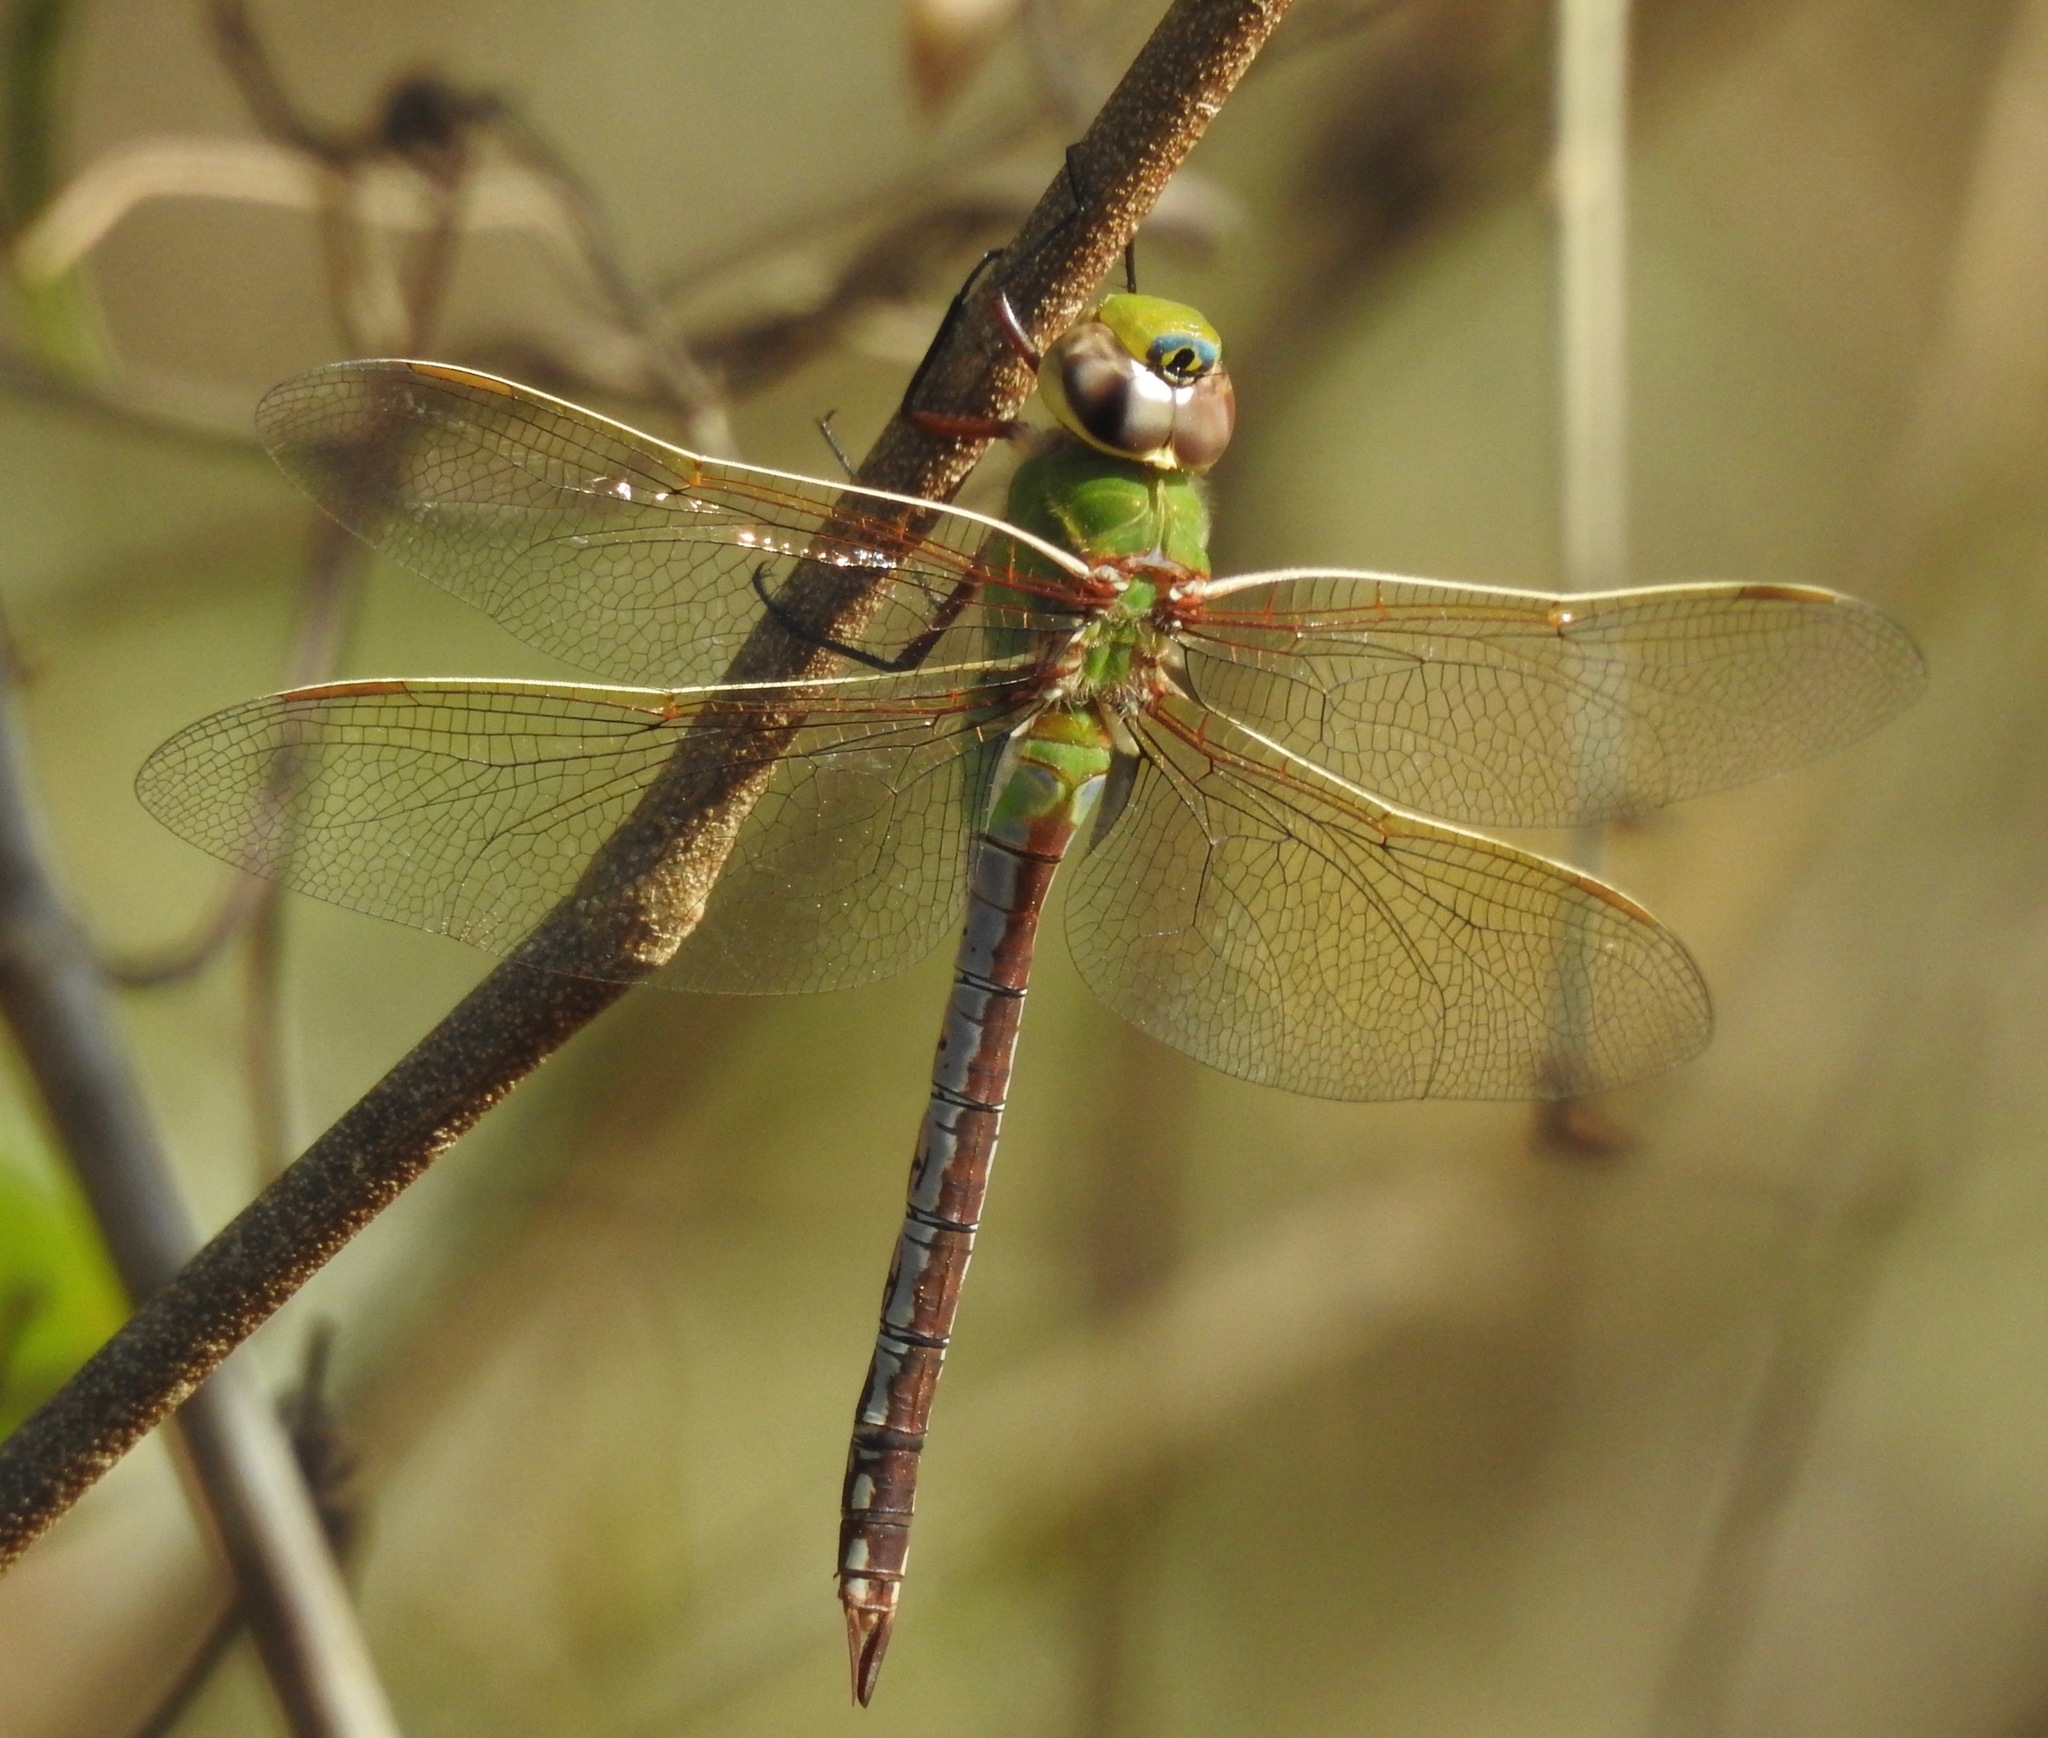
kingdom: Animalia
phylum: Arthropoda
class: Insecta
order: Odonata
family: Aeshnidae
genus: Anax
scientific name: Anax junius
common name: Common green darner
